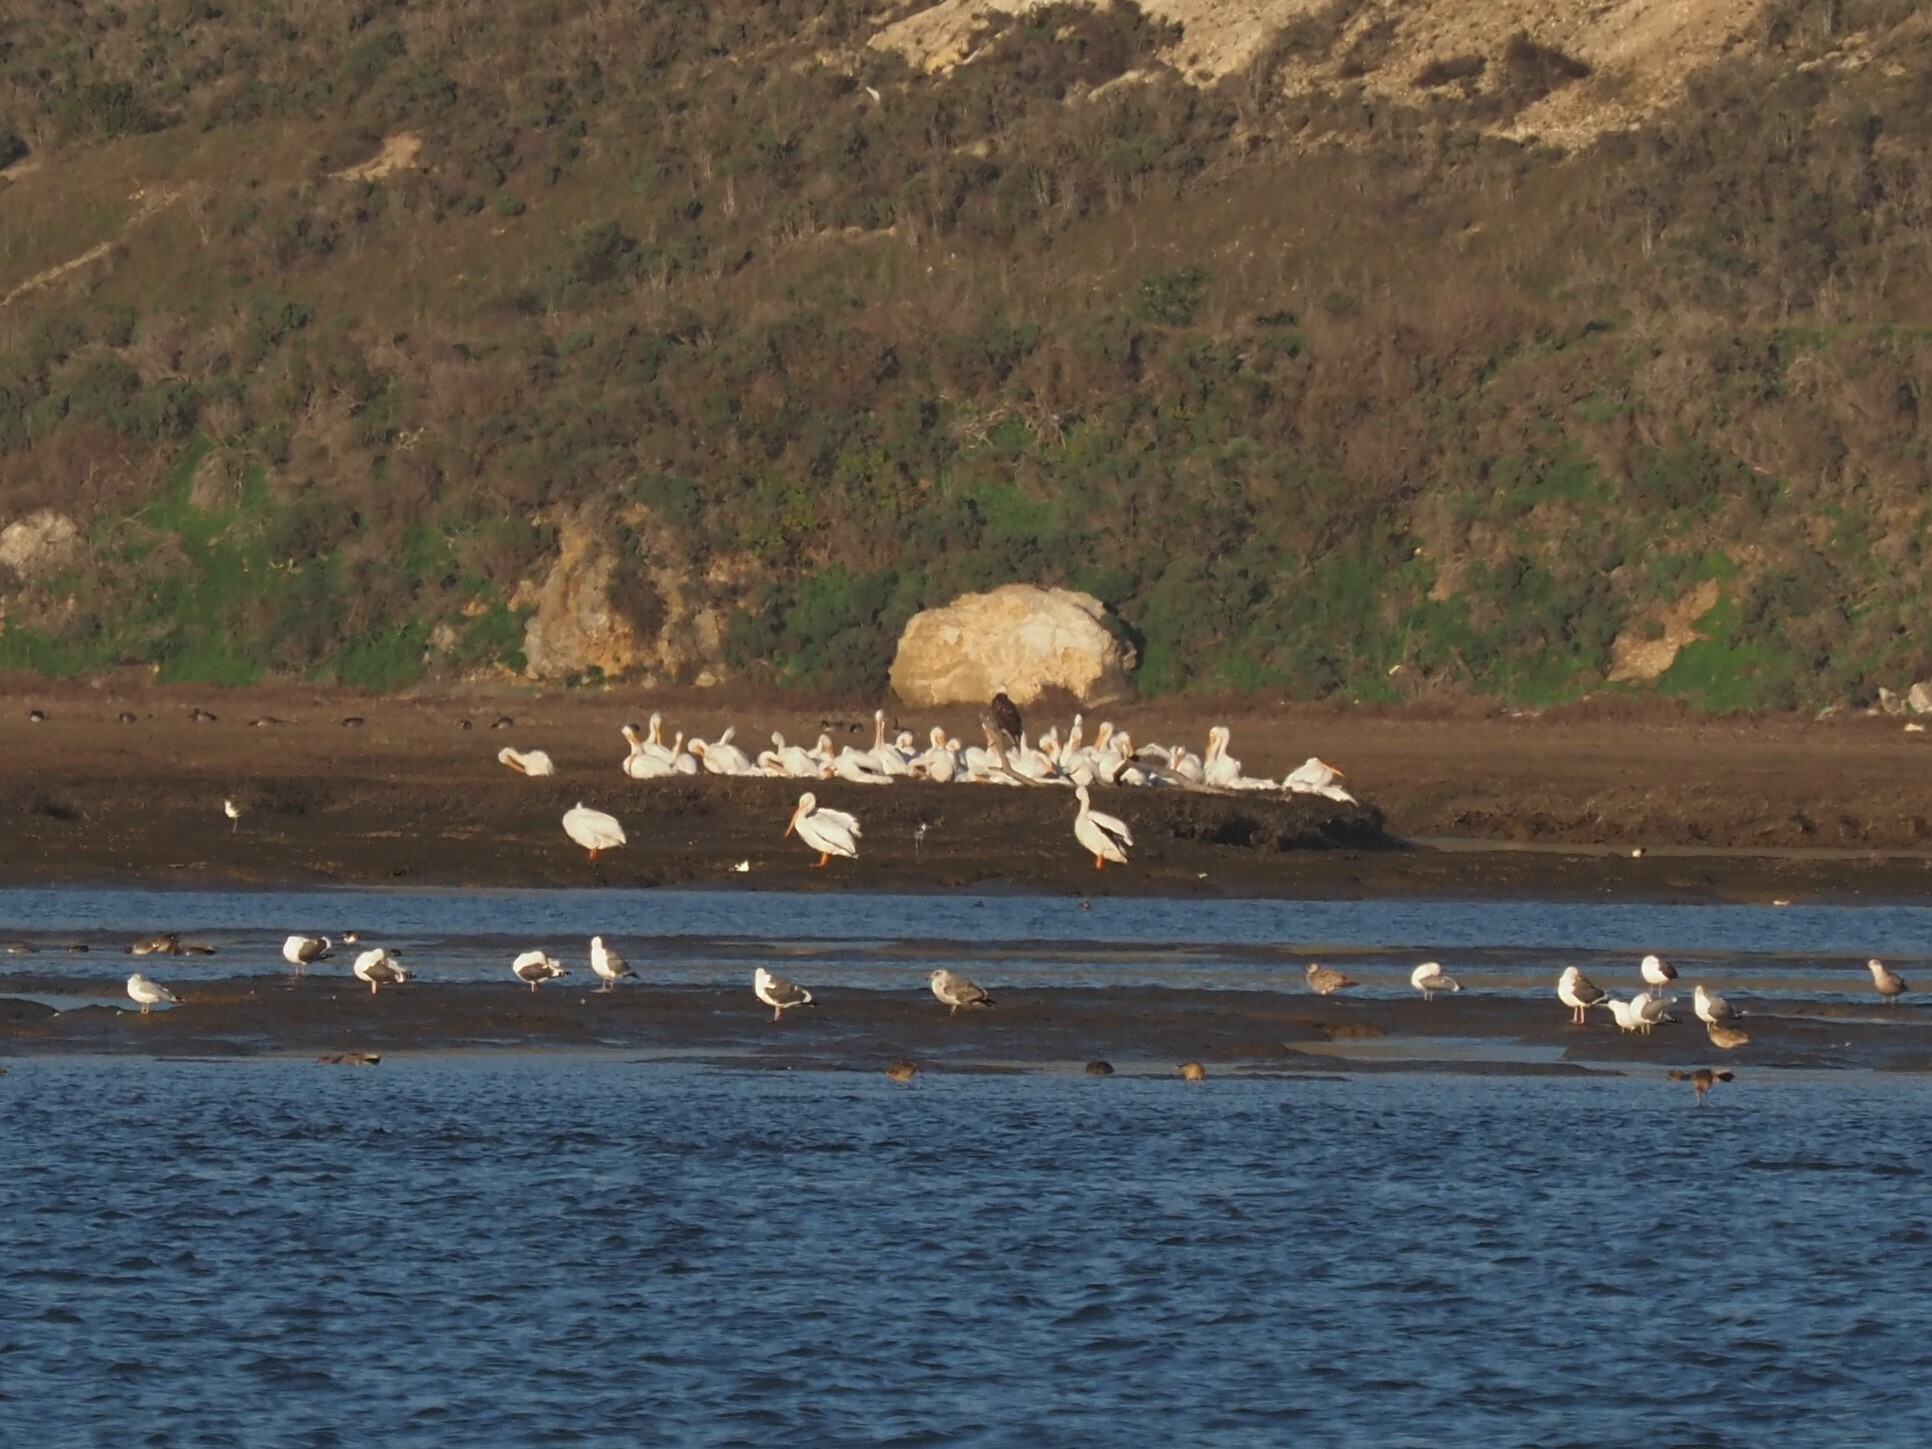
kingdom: Animalia
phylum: Chordata
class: Aves
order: Pelecaniformes
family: Pelecanidae
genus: Pelecanus
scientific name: Pelecanus erythrorhynchos
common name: American white pelican
